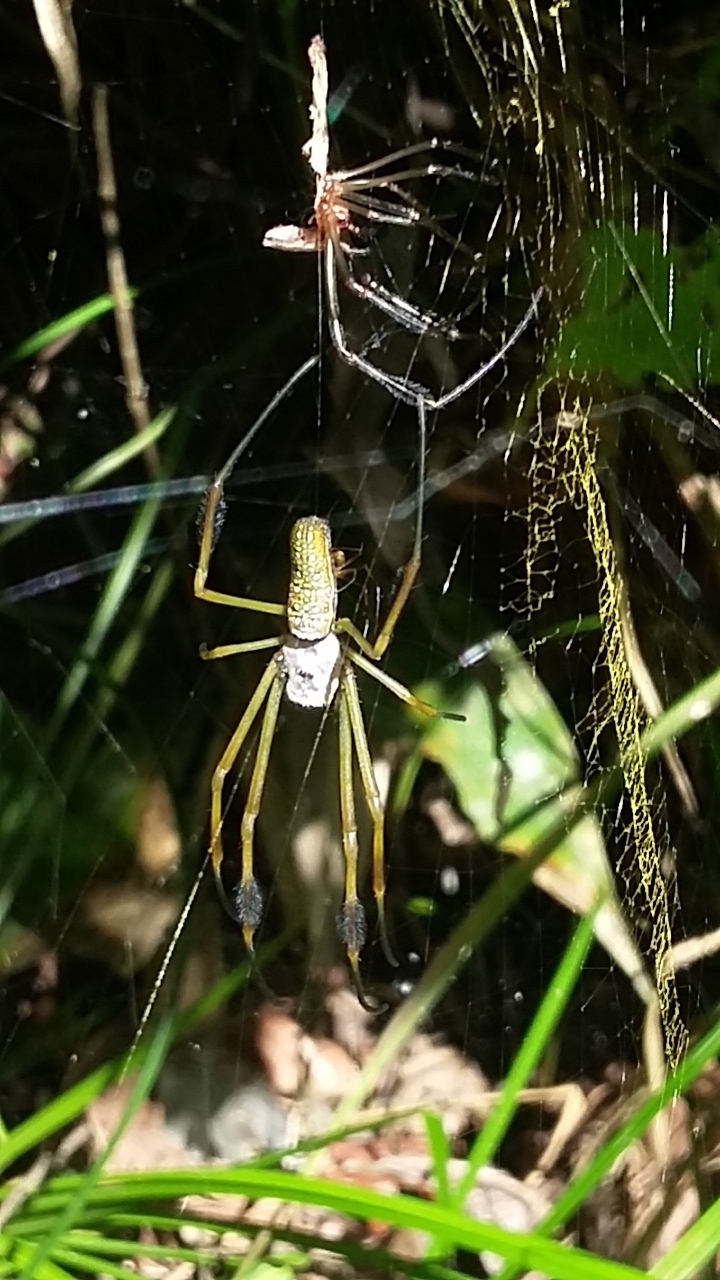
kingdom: Animalia
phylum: Arthropoda
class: Arachnida
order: Araneae
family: Araneidae
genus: Trichonephila
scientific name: Trichonephila clavipes
